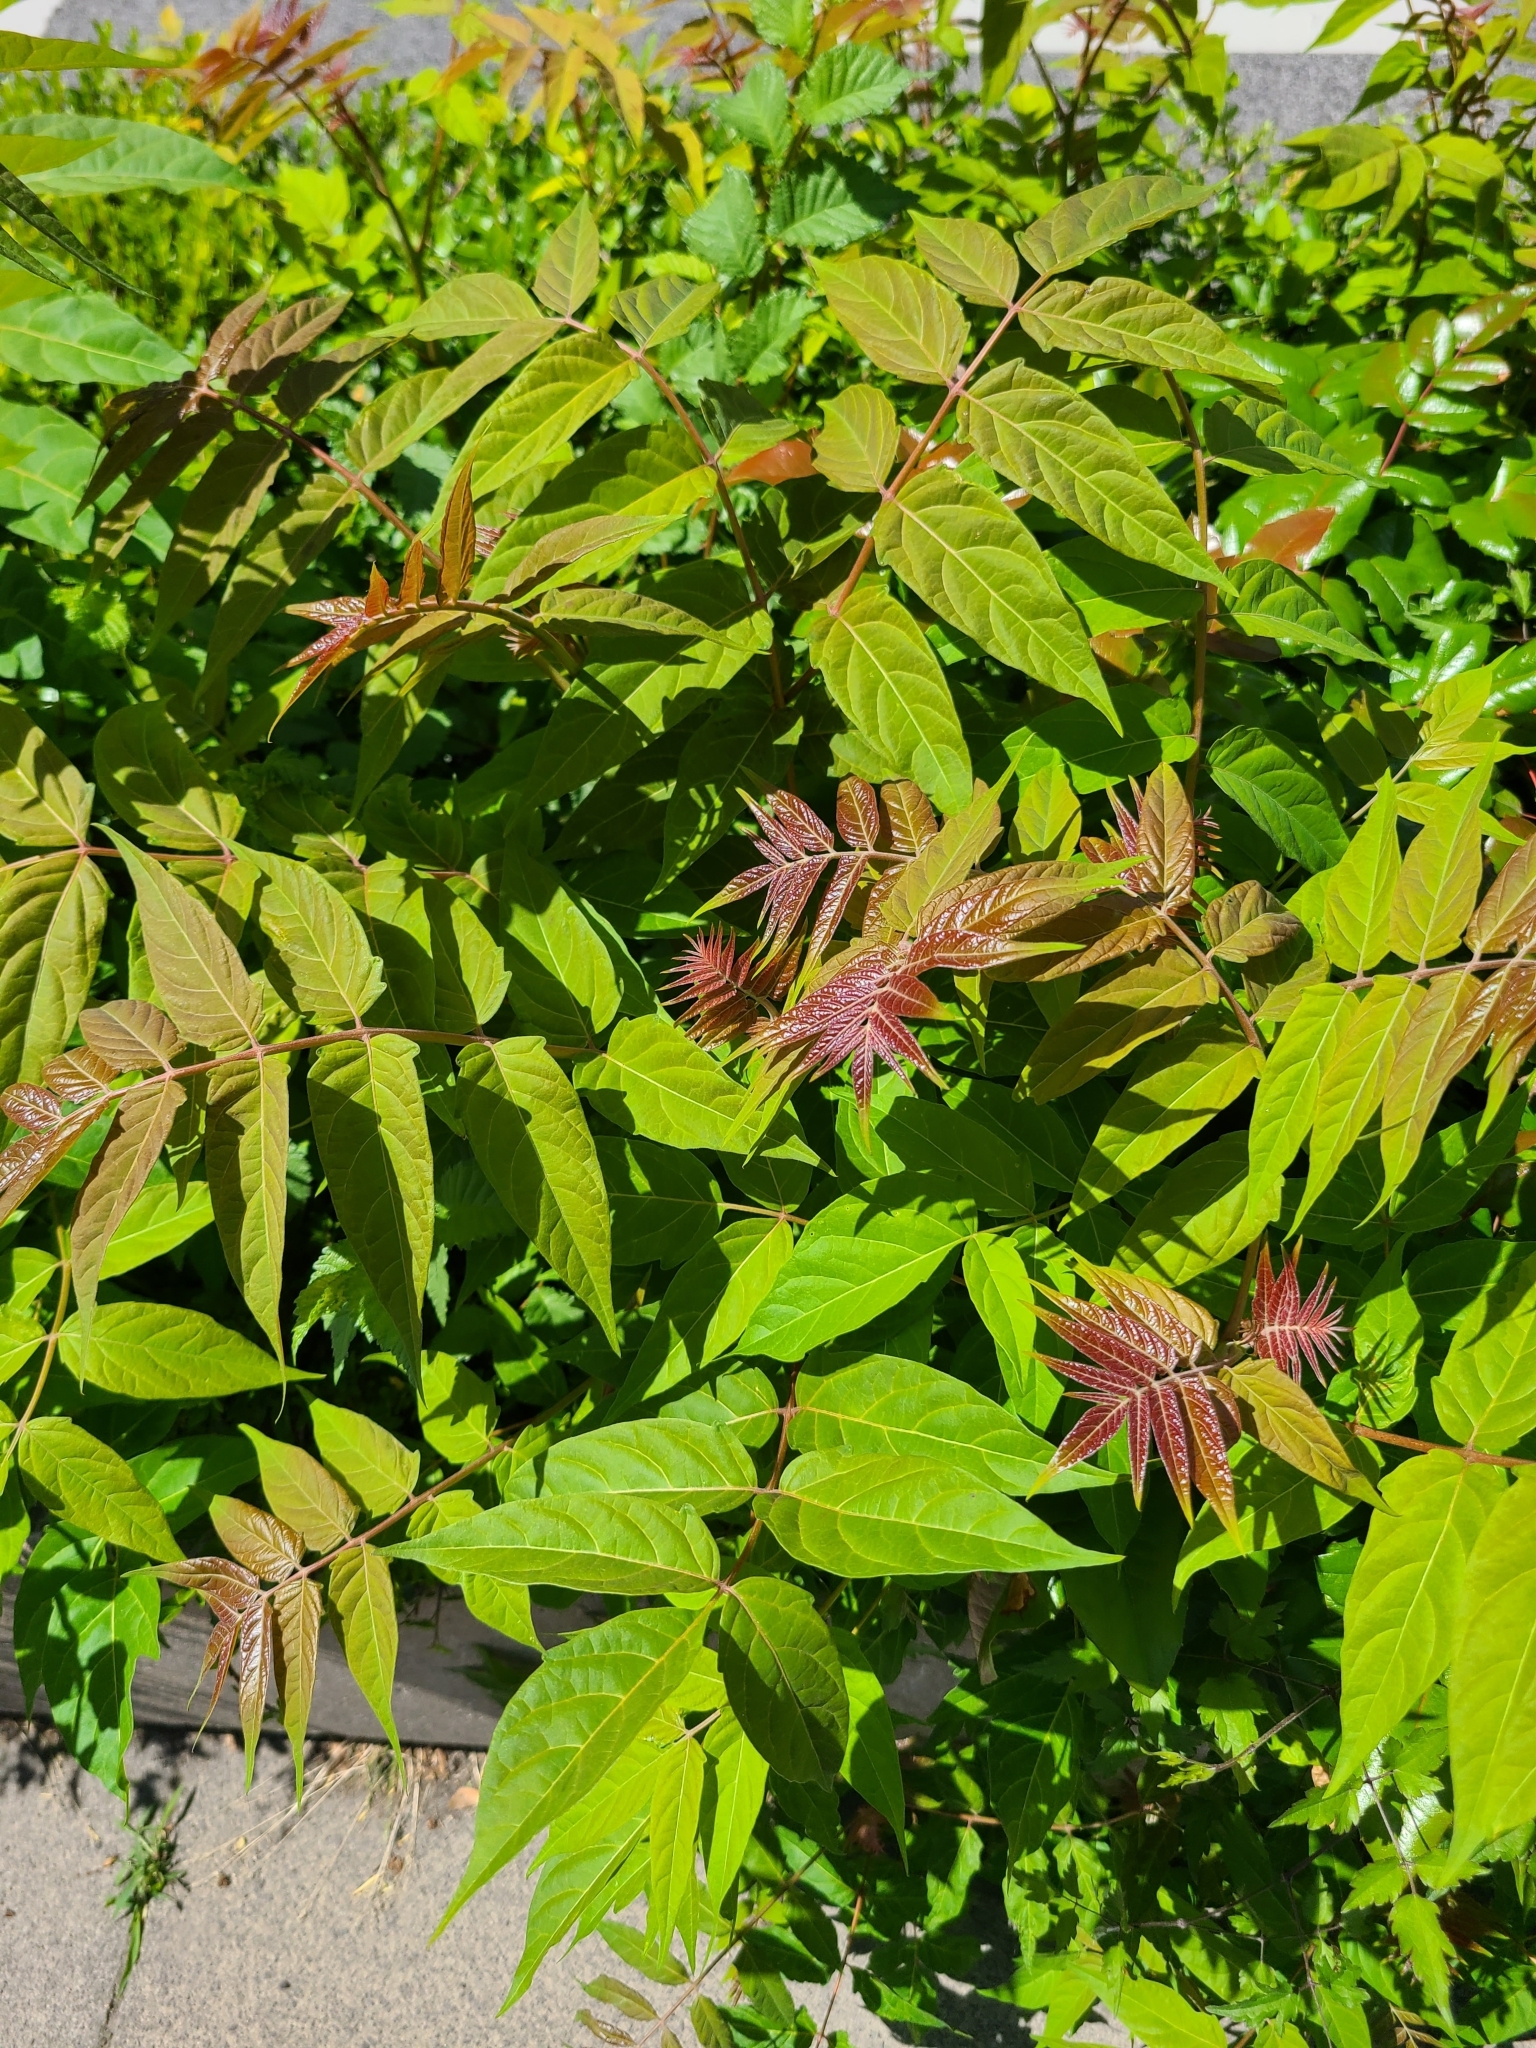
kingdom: Plantae
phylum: Tracheophyta
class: Magnoliopsida
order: Sapindales
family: Simaroubaceae
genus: Ailanthus
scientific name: Ailanthus altissima
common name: Tree-of-heaven
